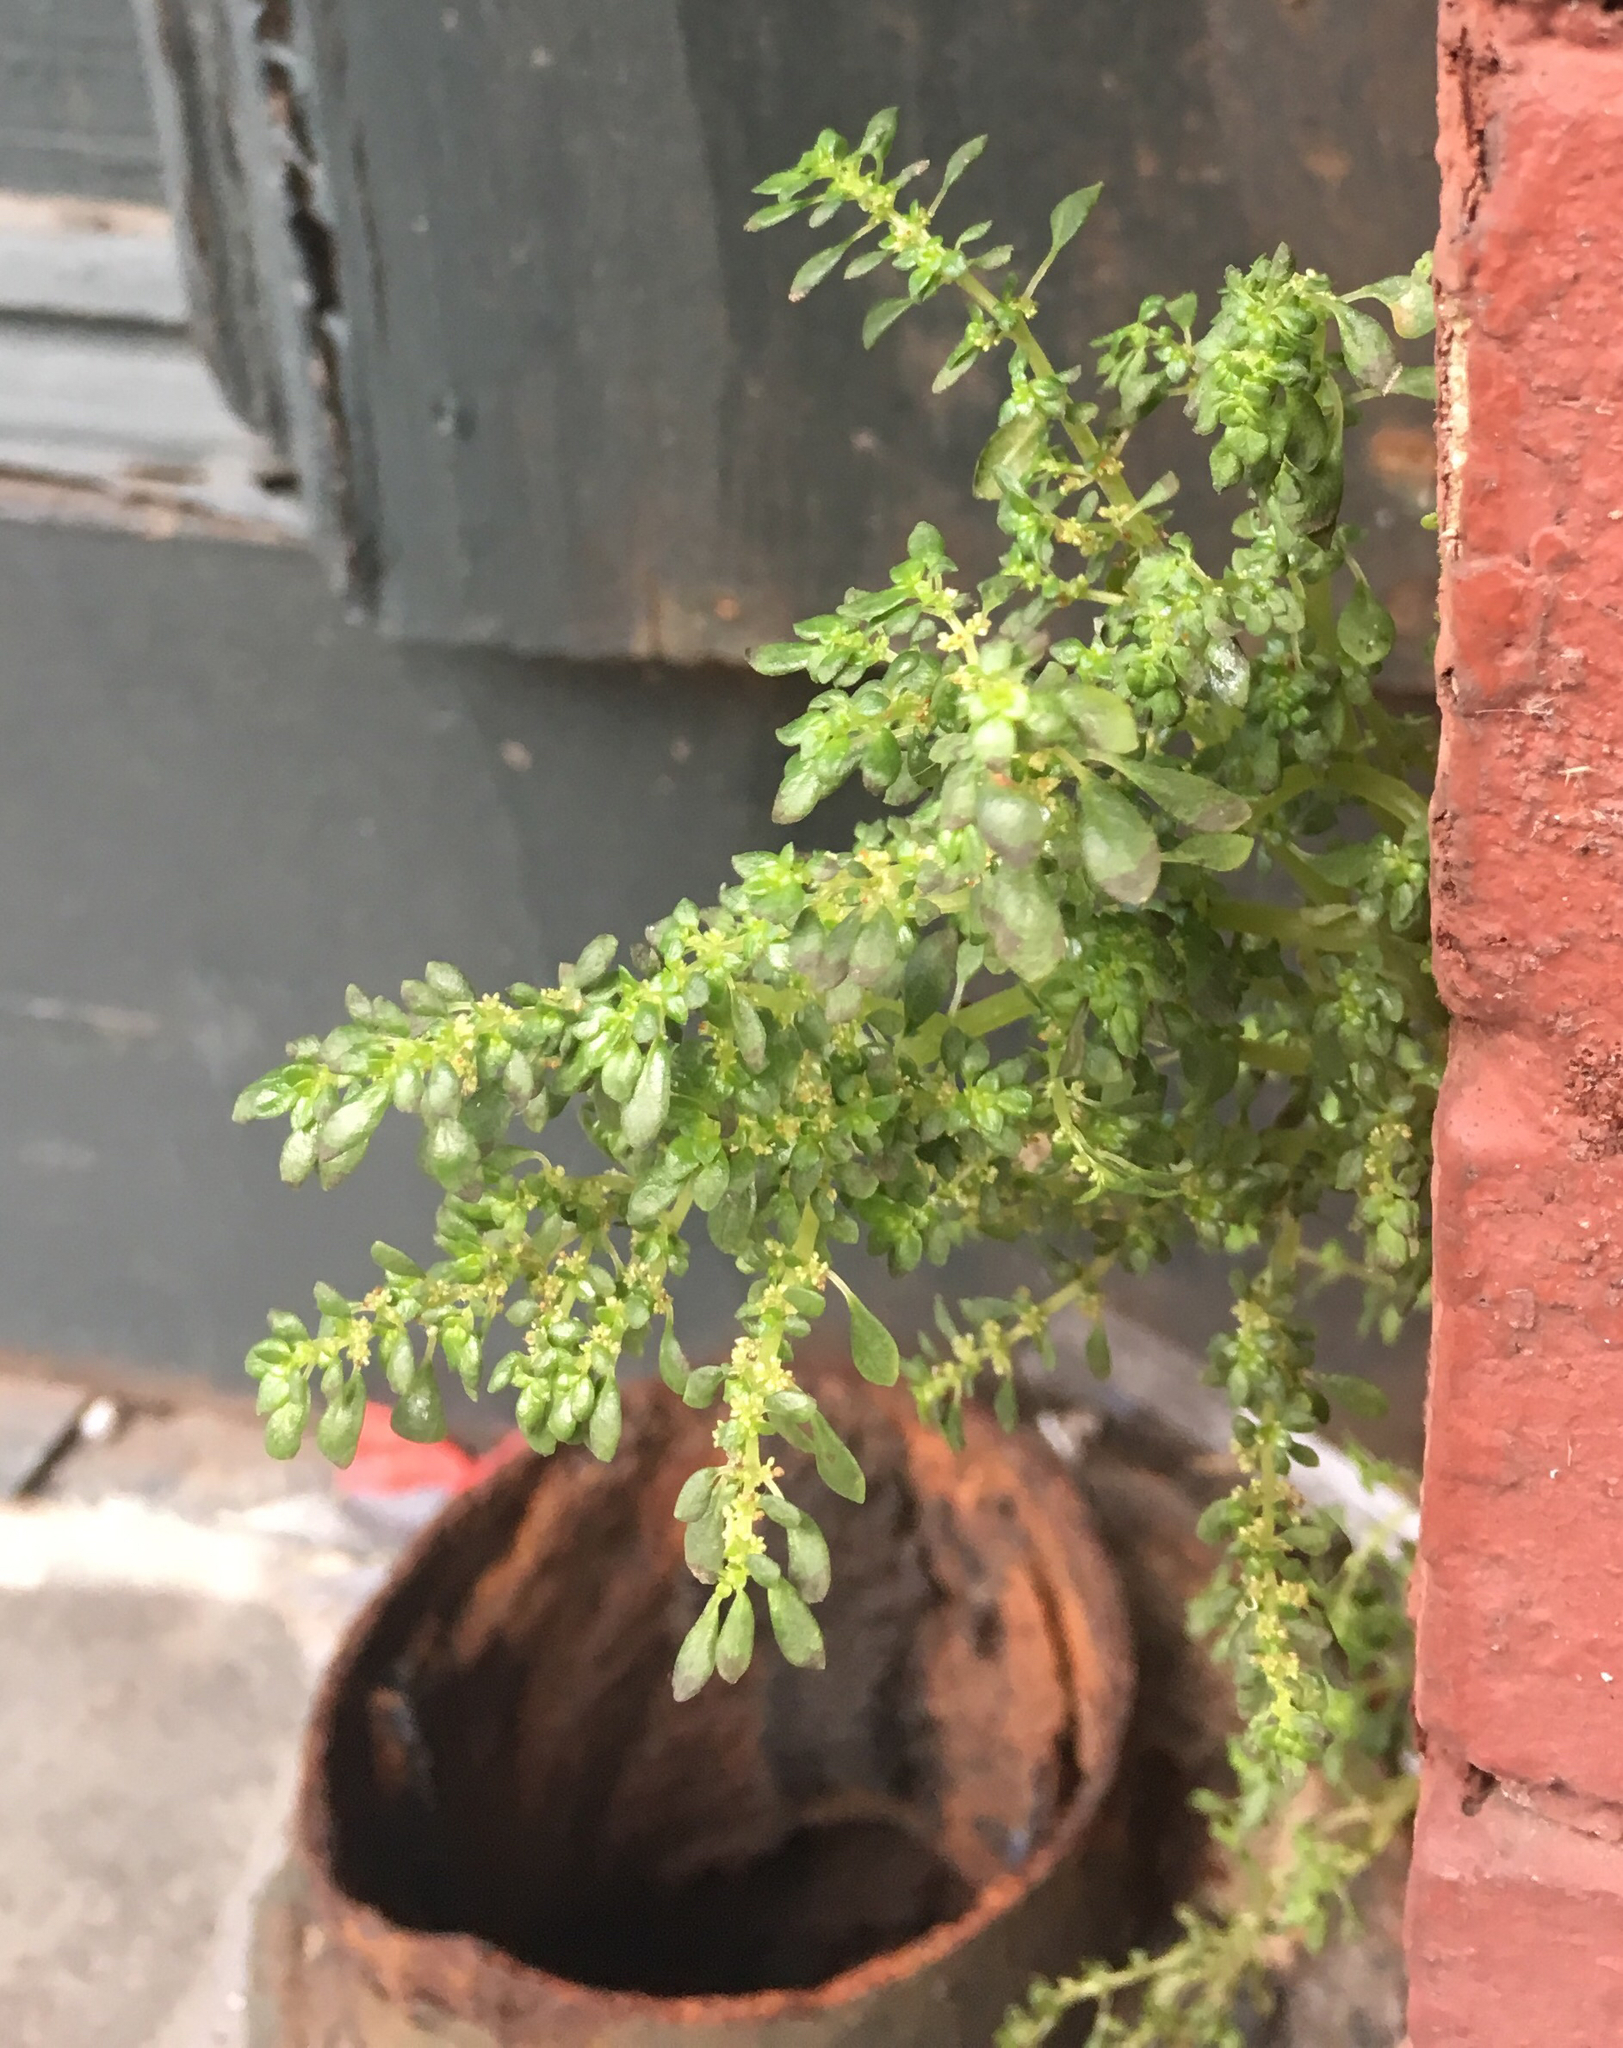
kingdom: Plantae
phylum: Tracheophyta
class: Magnoliopsida
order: Rosales
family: Urticaceae
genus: Pilea
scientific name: Pilea microphylla
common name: Artillery-plant
